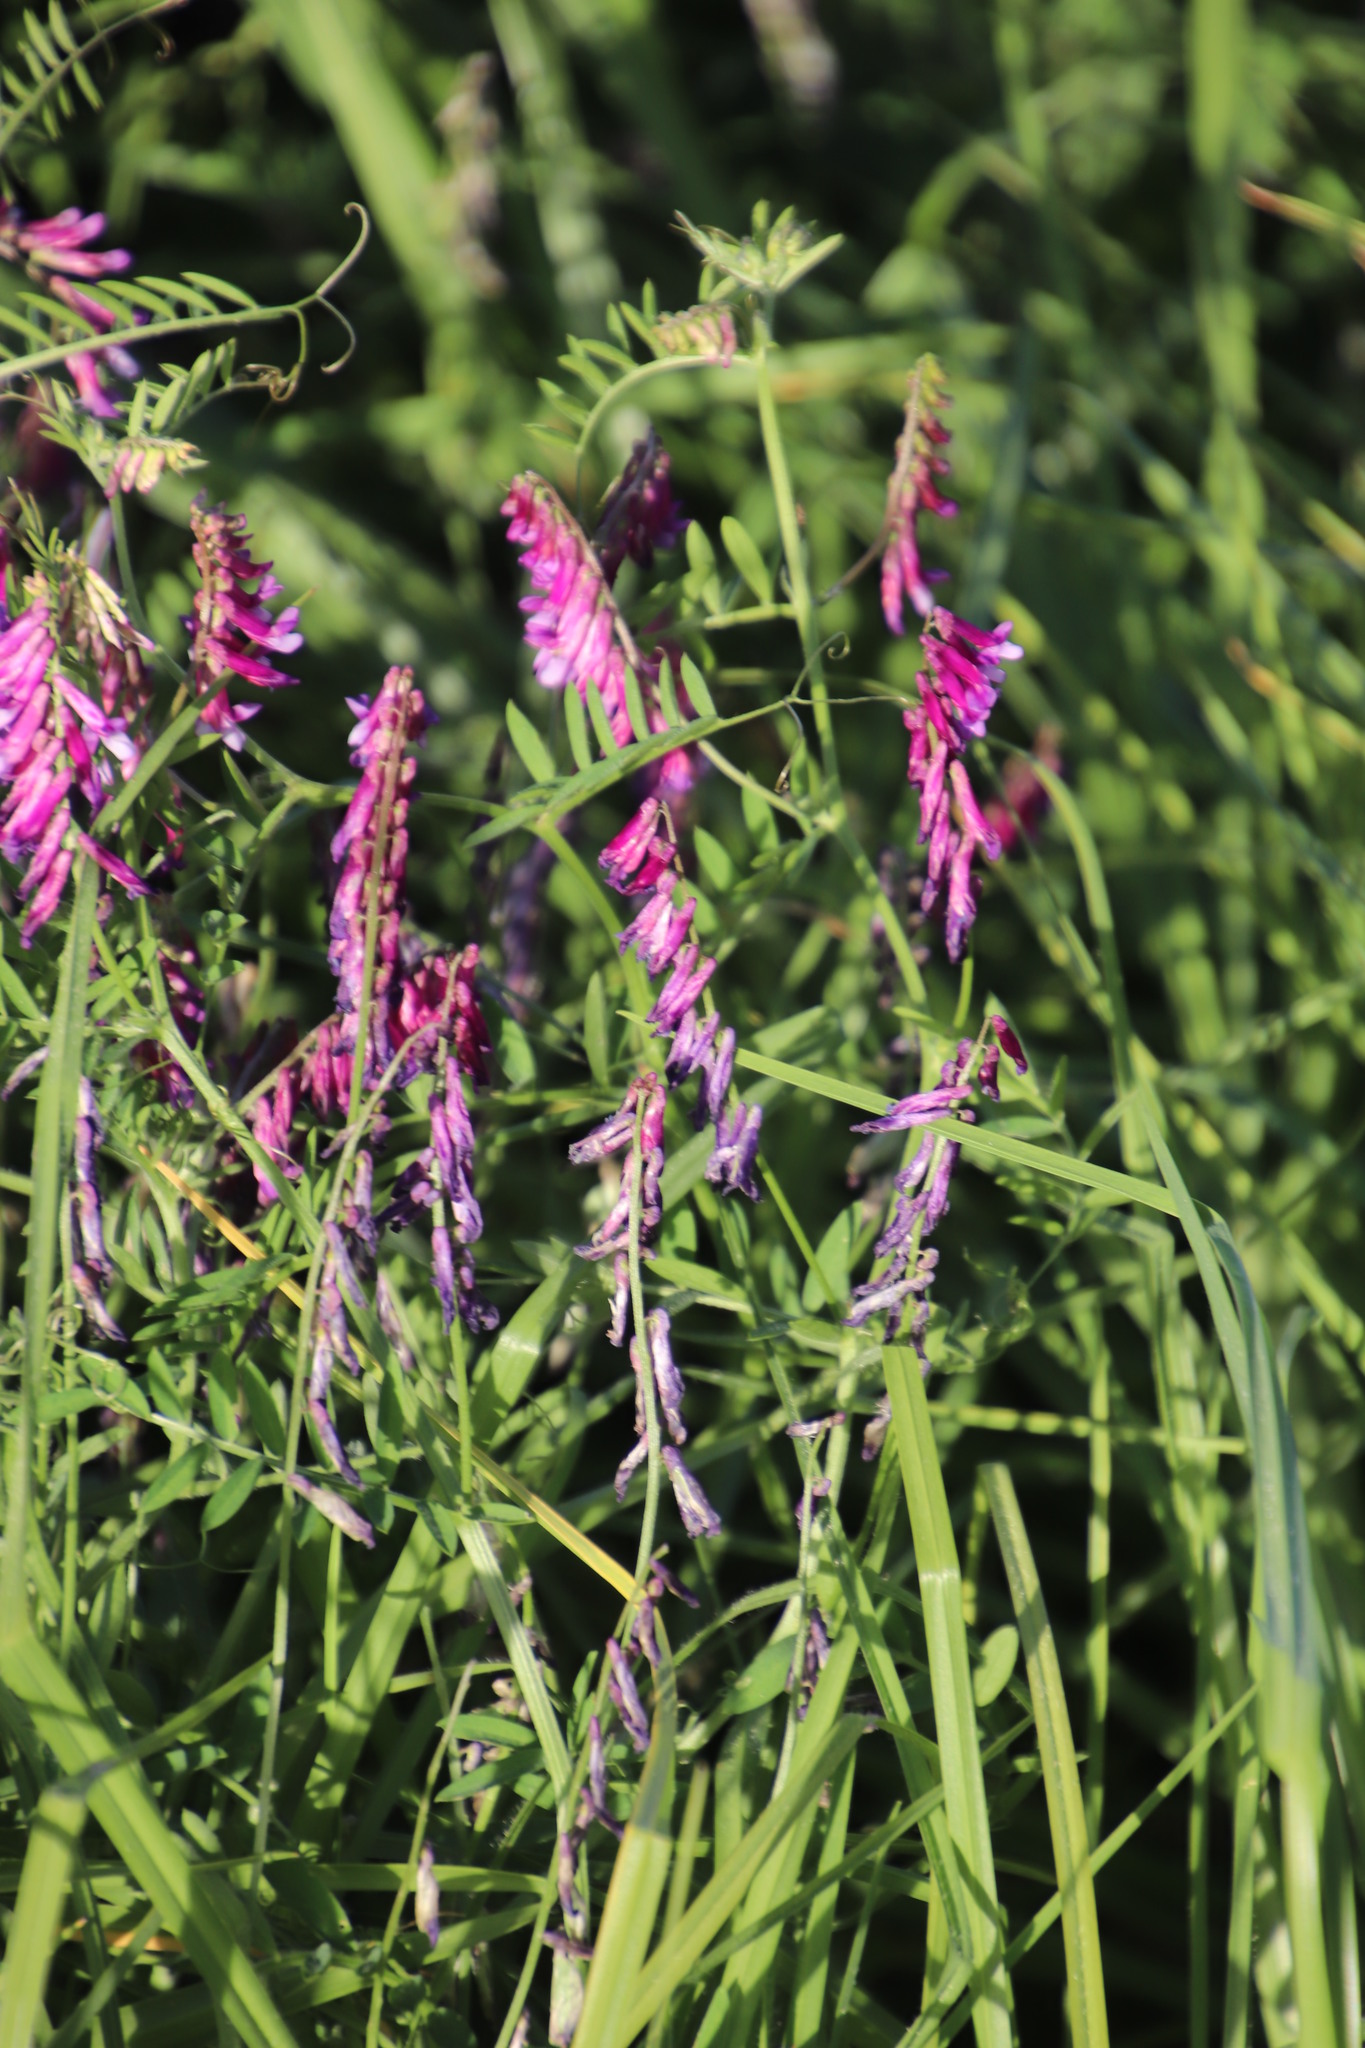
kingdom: Plantae
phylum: Tracheophyta
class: Magnoliopsida
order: Fabales
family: Fabaceae
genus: Vicia
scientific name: Vicia eriocarpa
